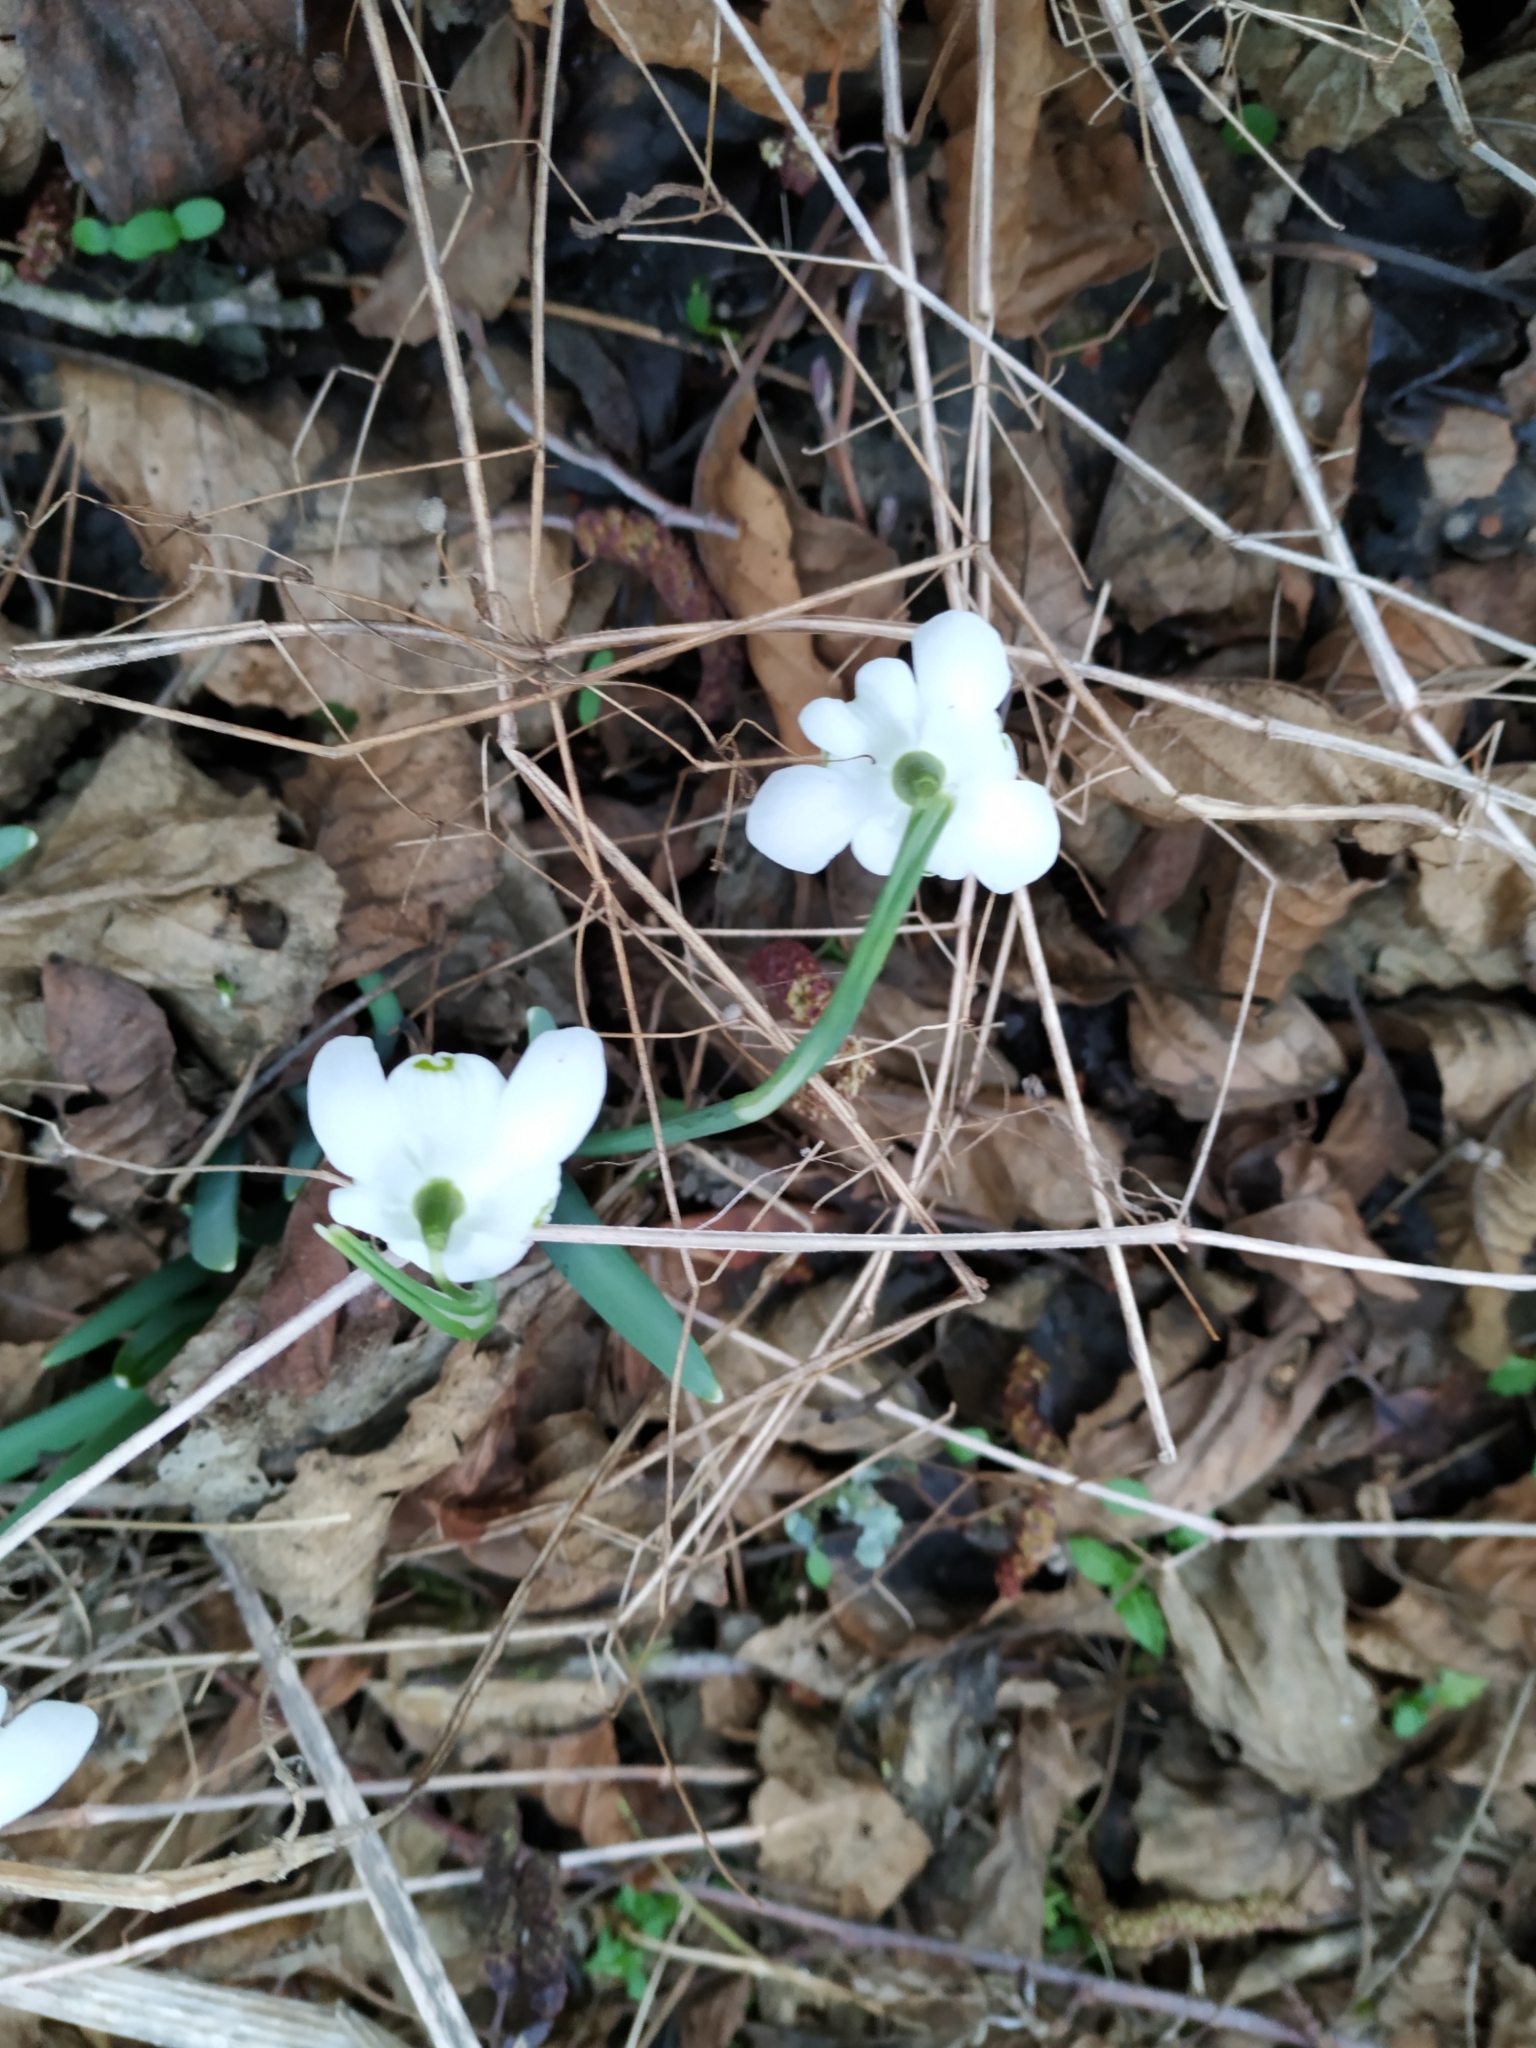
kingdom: Plantae
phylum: Tracheophyta
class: Liliopsida
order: Asparagales
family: Amaryllidaceae
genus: Galanthus
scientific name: Galanthus nivalis
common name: Snowdrop
